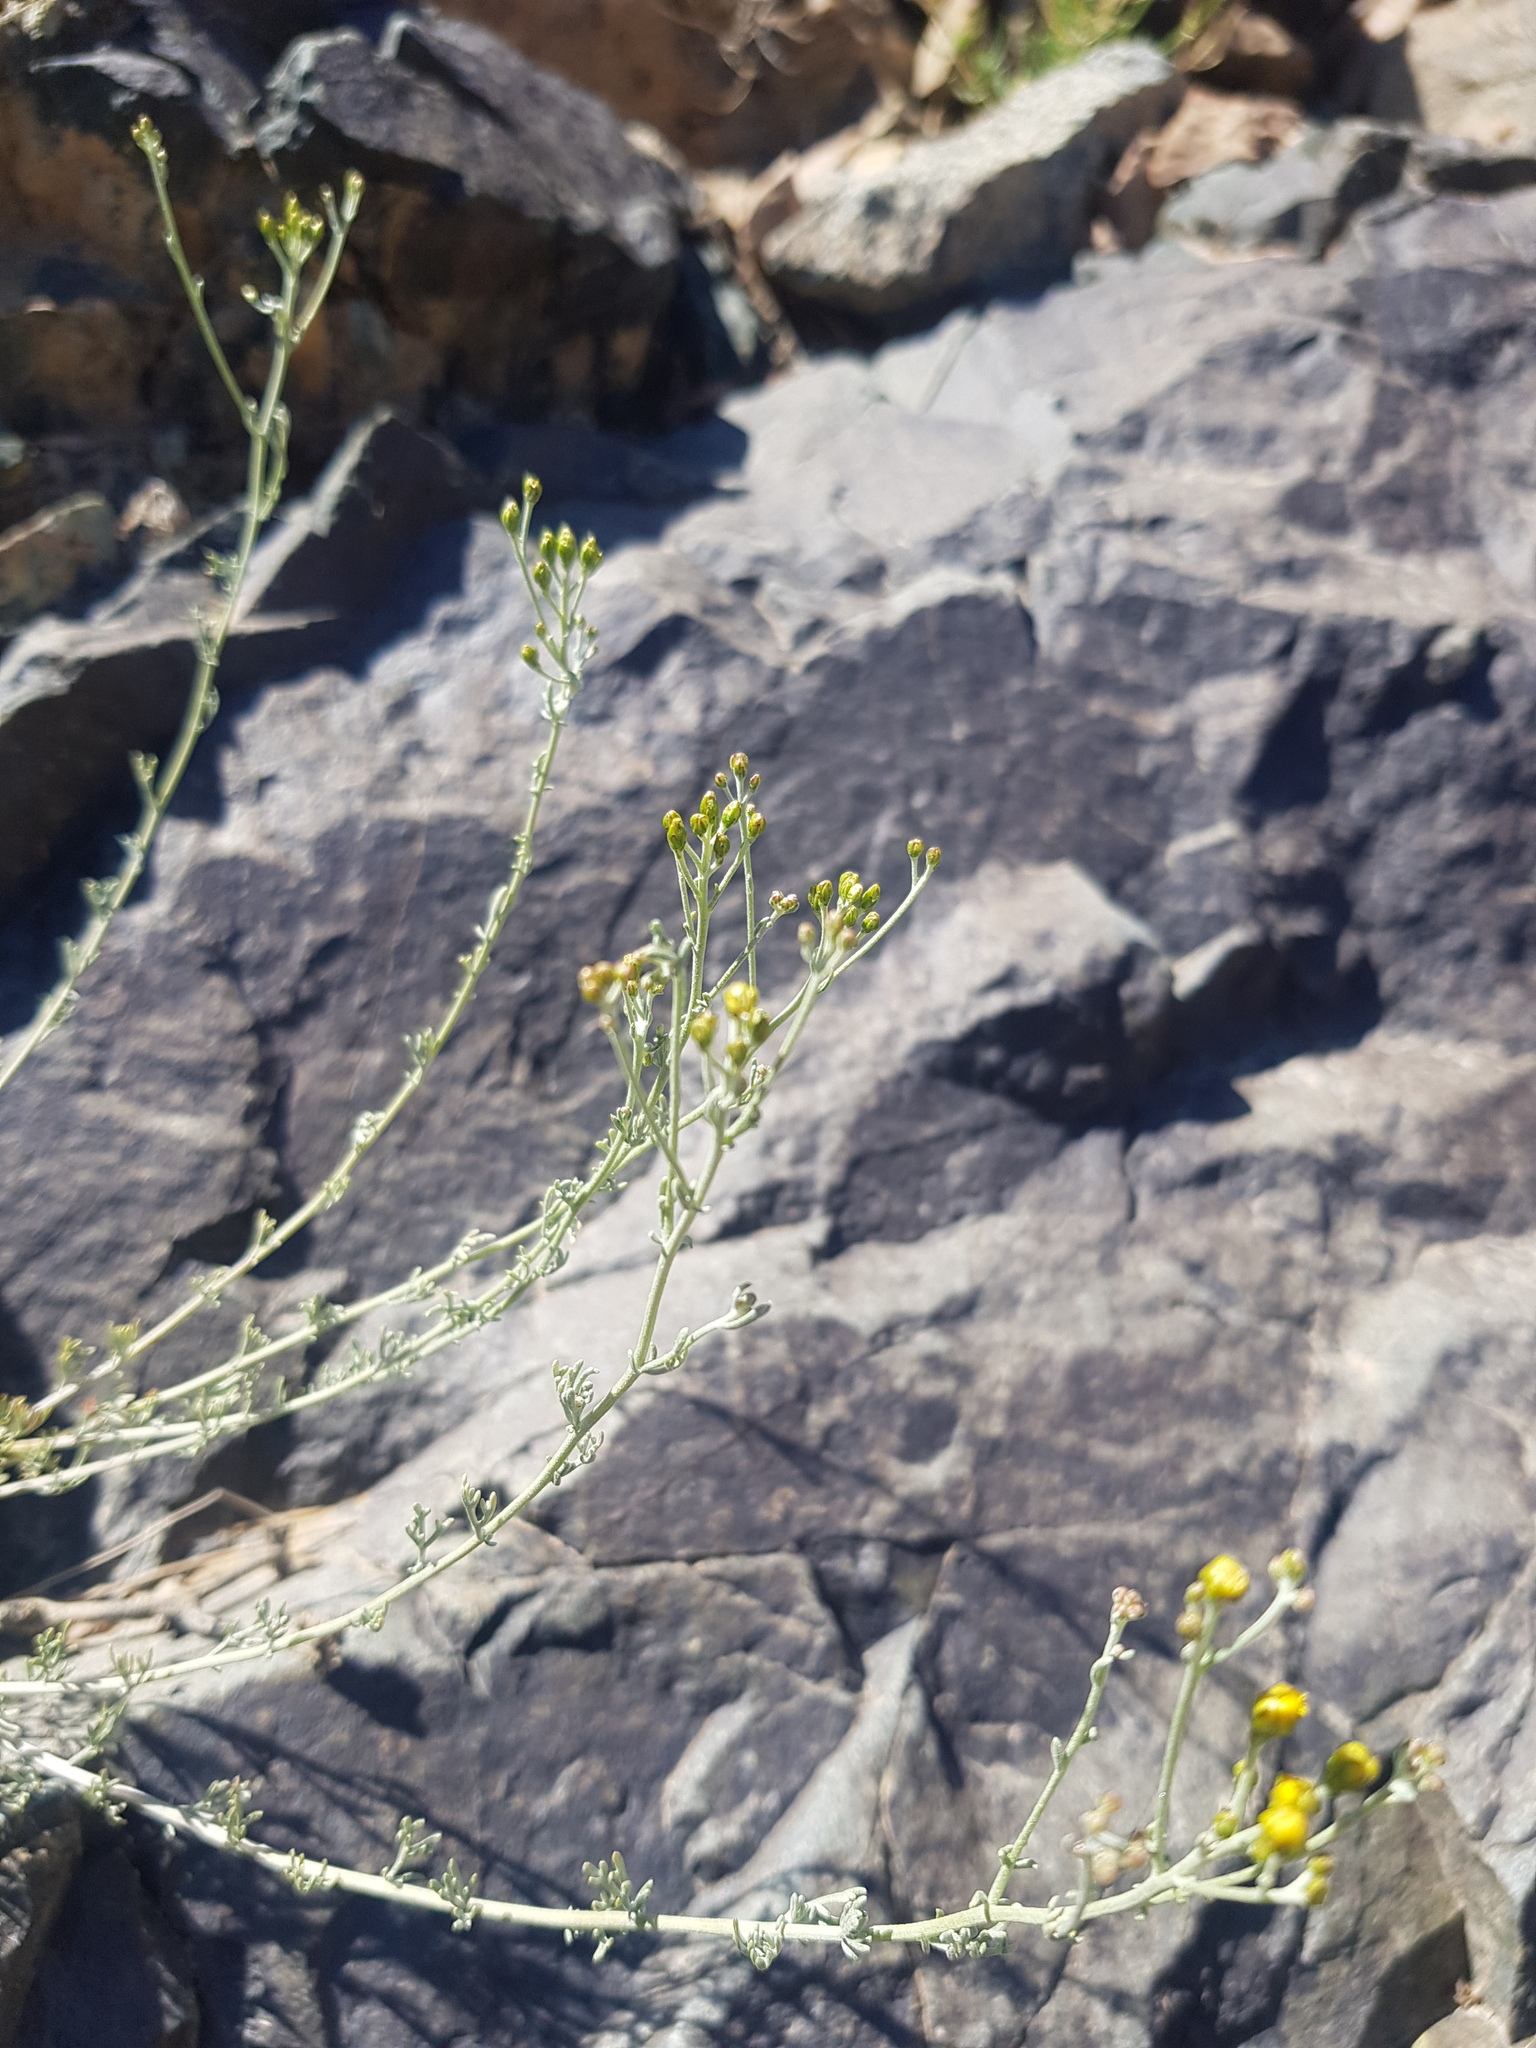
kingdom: Plantae
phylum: Tracheophyta
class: Magnoliopsida
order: Asterales
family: Asteraceae
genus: Ajania
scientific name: Ajania fruticulosa
